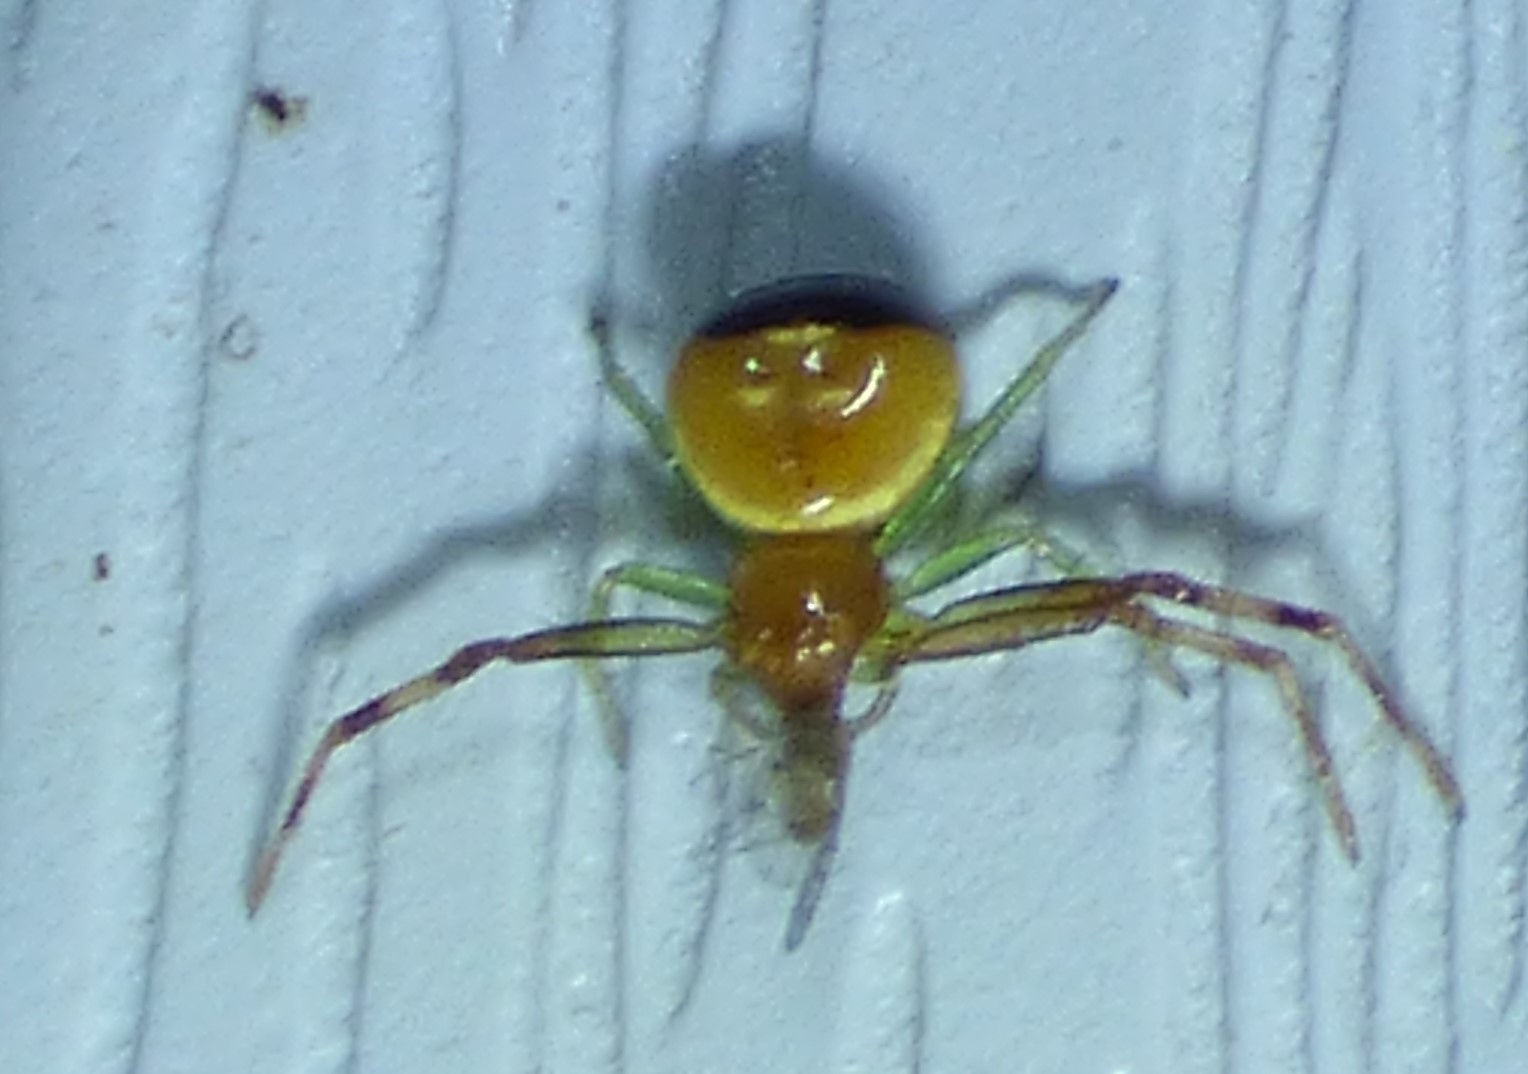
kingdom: Animalia
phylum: Arthropoda
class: Arachnida
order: Araneae
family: Thomisidae
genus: Synema
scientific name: Synema parvulum
